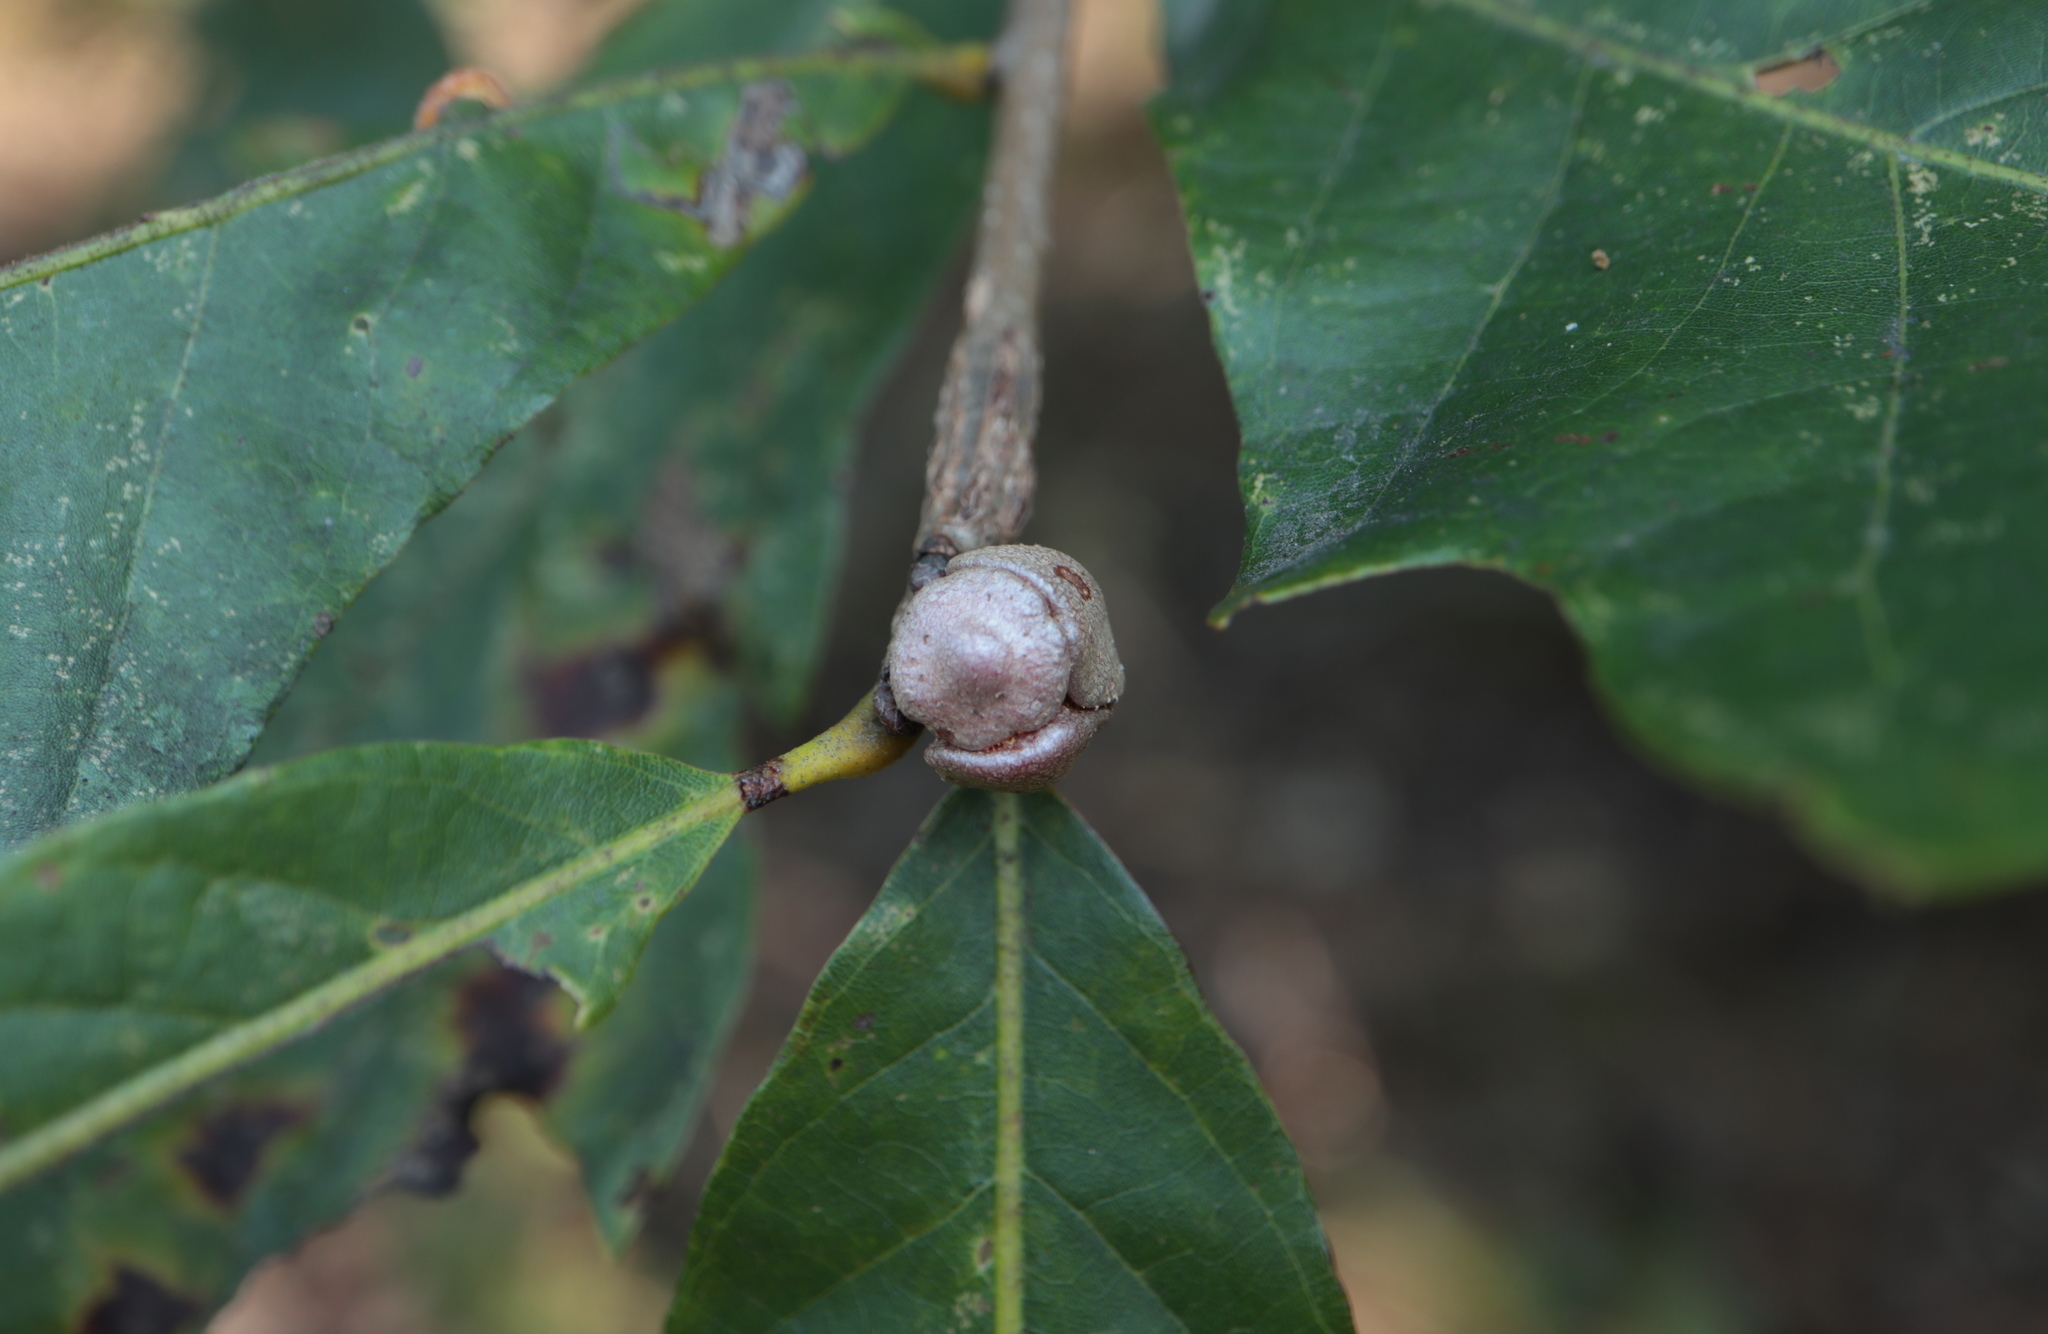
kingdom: Animalia
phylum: Arthropoda
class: Insecta
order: Hymenoptera
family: Cynipidae
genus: Andricus
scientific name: Andricus
